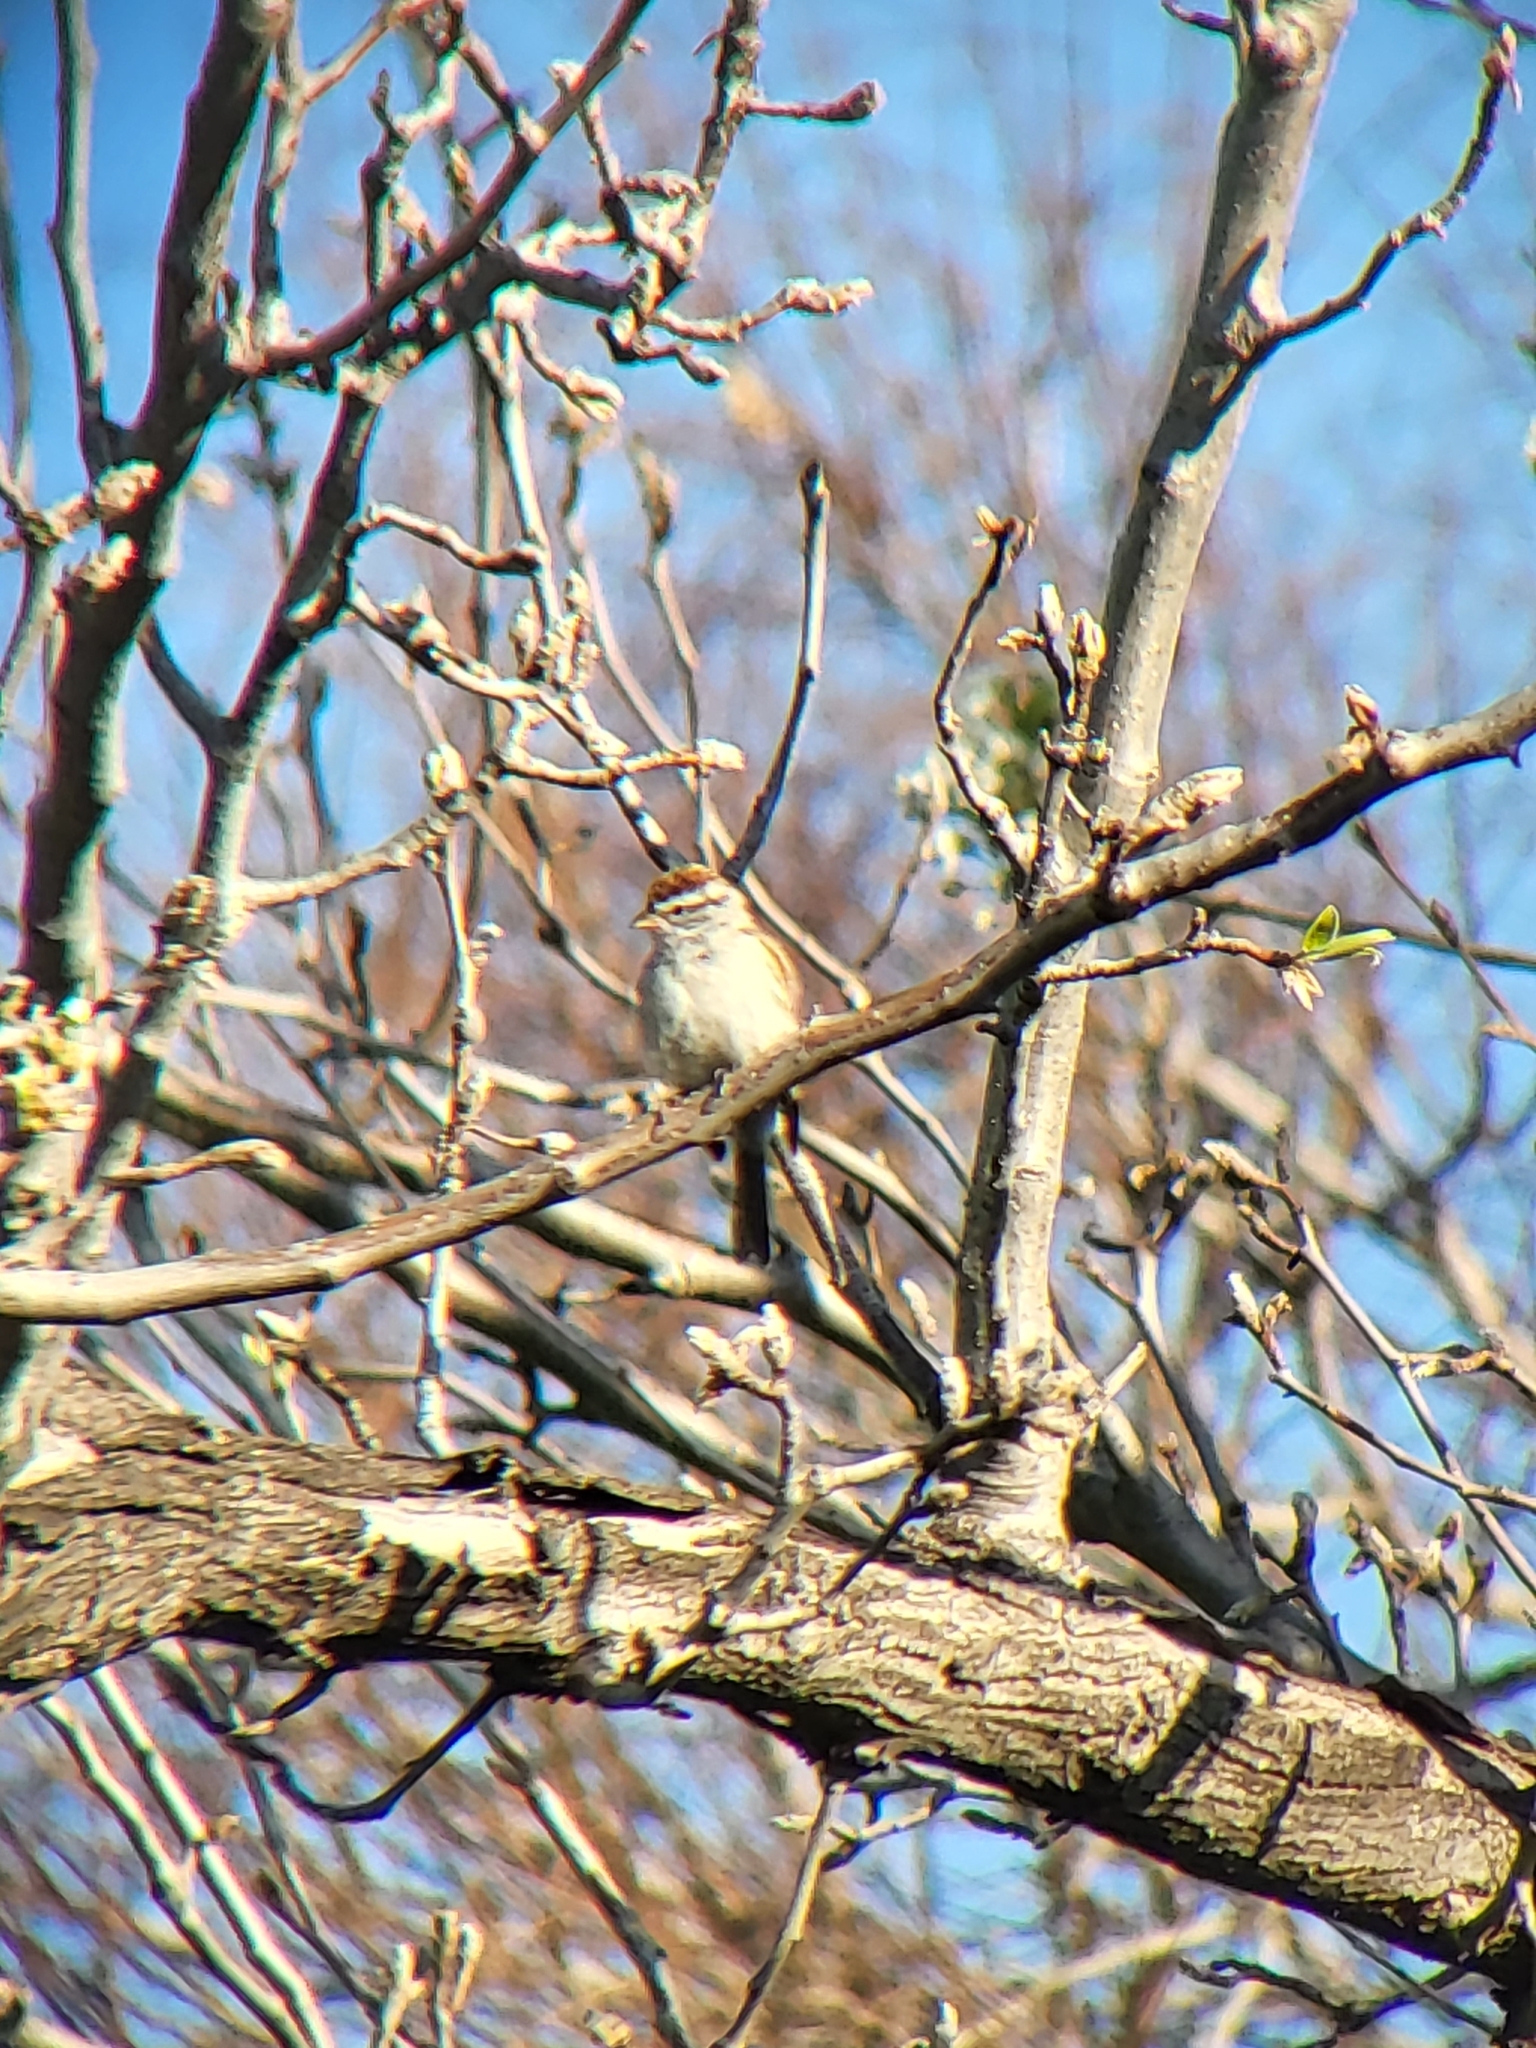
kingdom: Animalia
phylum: Chordata
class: Aves
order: Passeriformes
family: Passerellidae
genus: Spizella
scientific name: Spizella passerina
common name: Chipping sparrow
